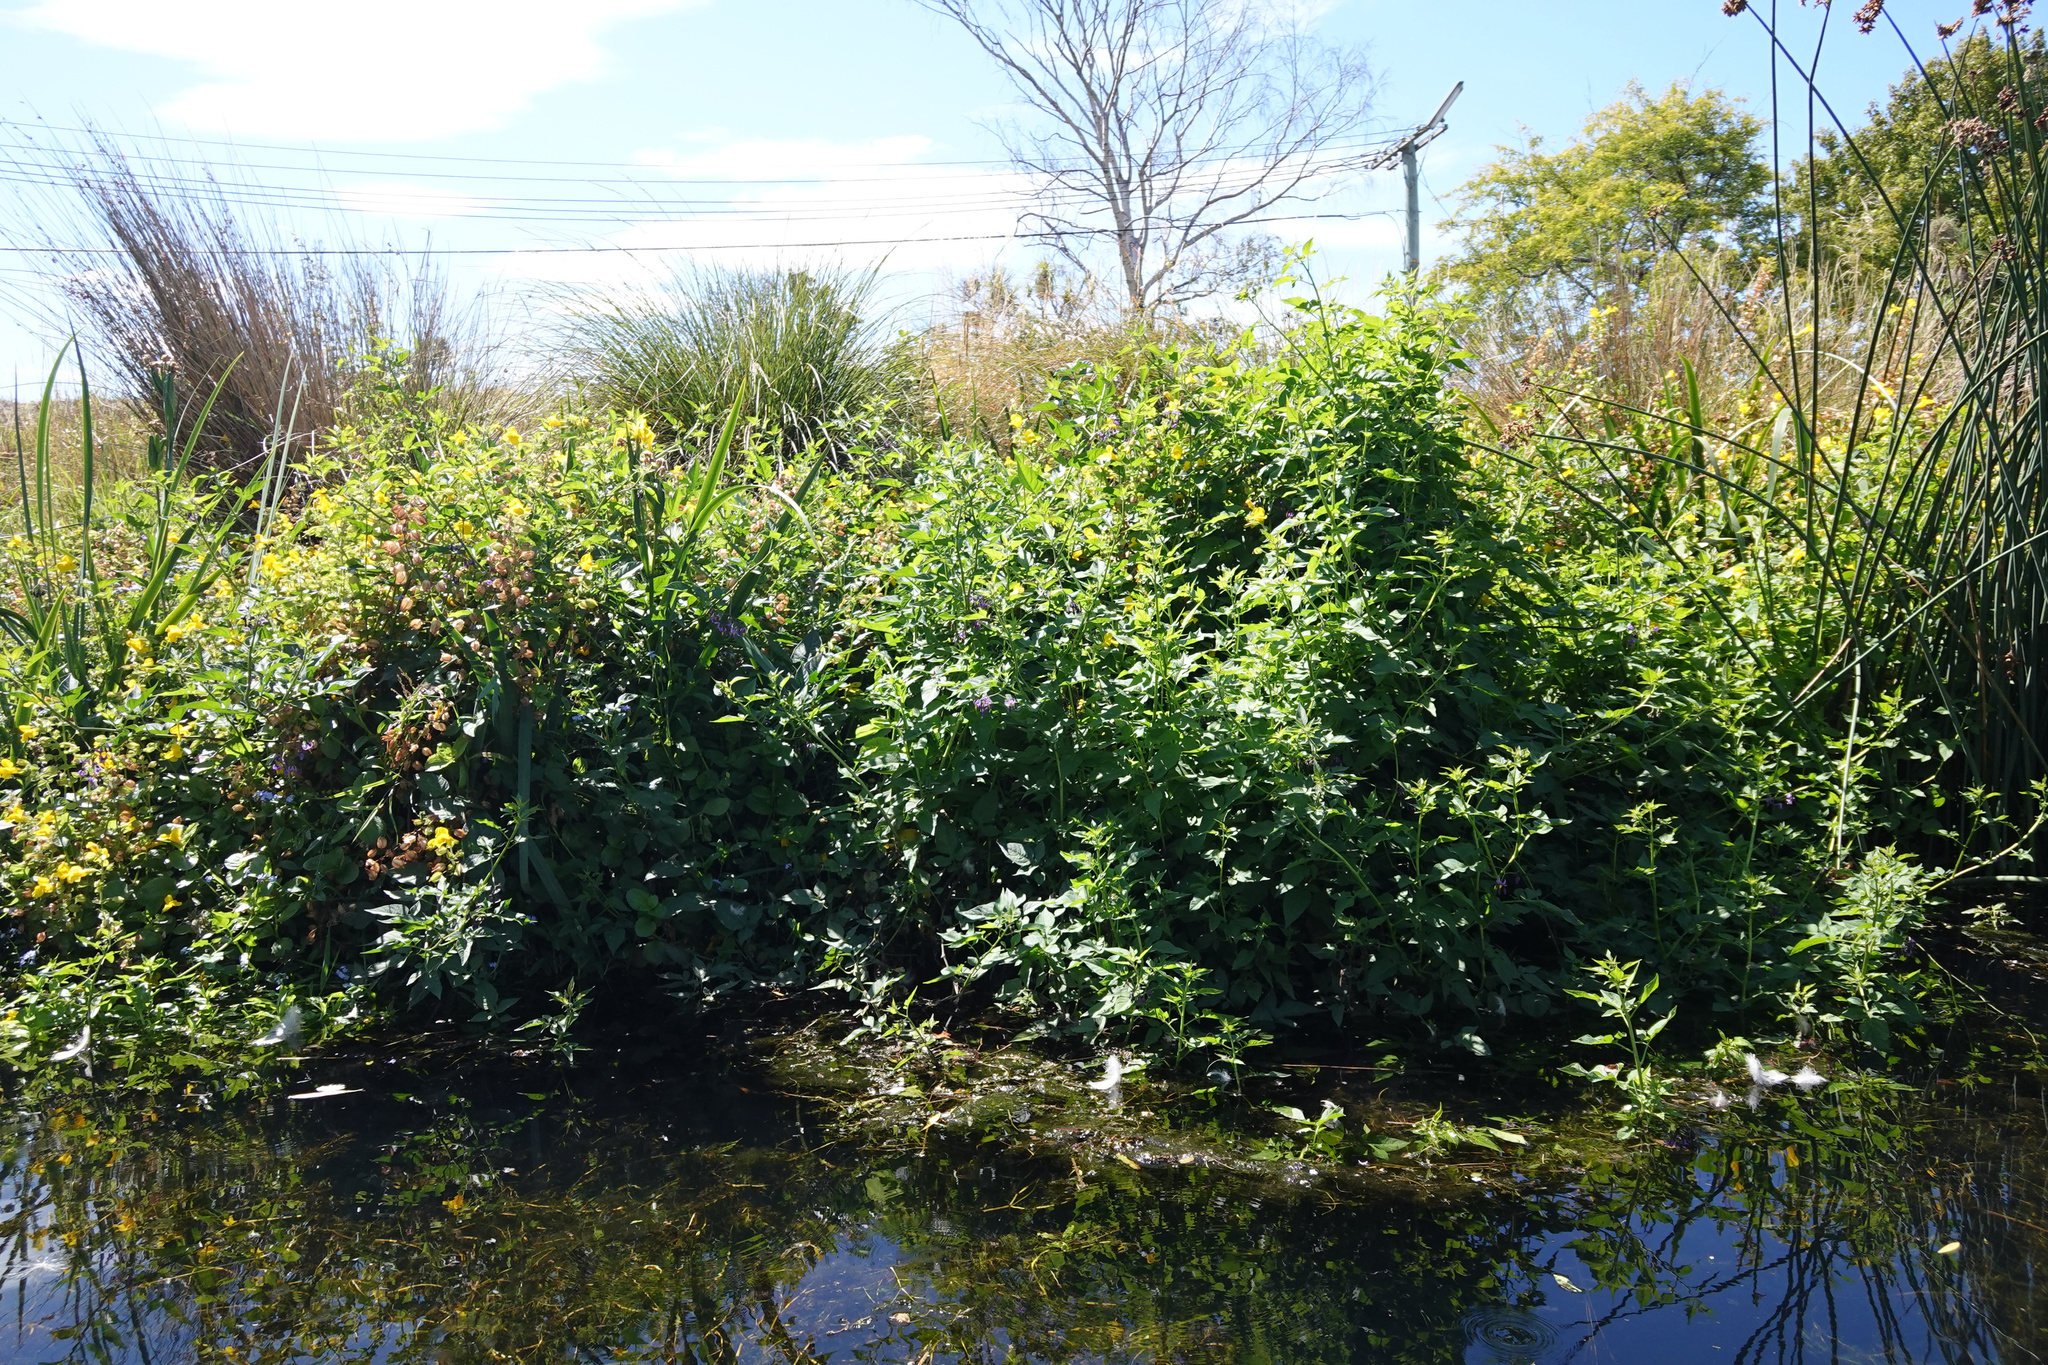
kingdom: Plantae
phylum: Tracheophyta
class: Magnoliopsida
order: Solanales
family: Solanaceae
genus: Solanum
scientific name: Solanum dulcamara
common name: Climbing nightshade
